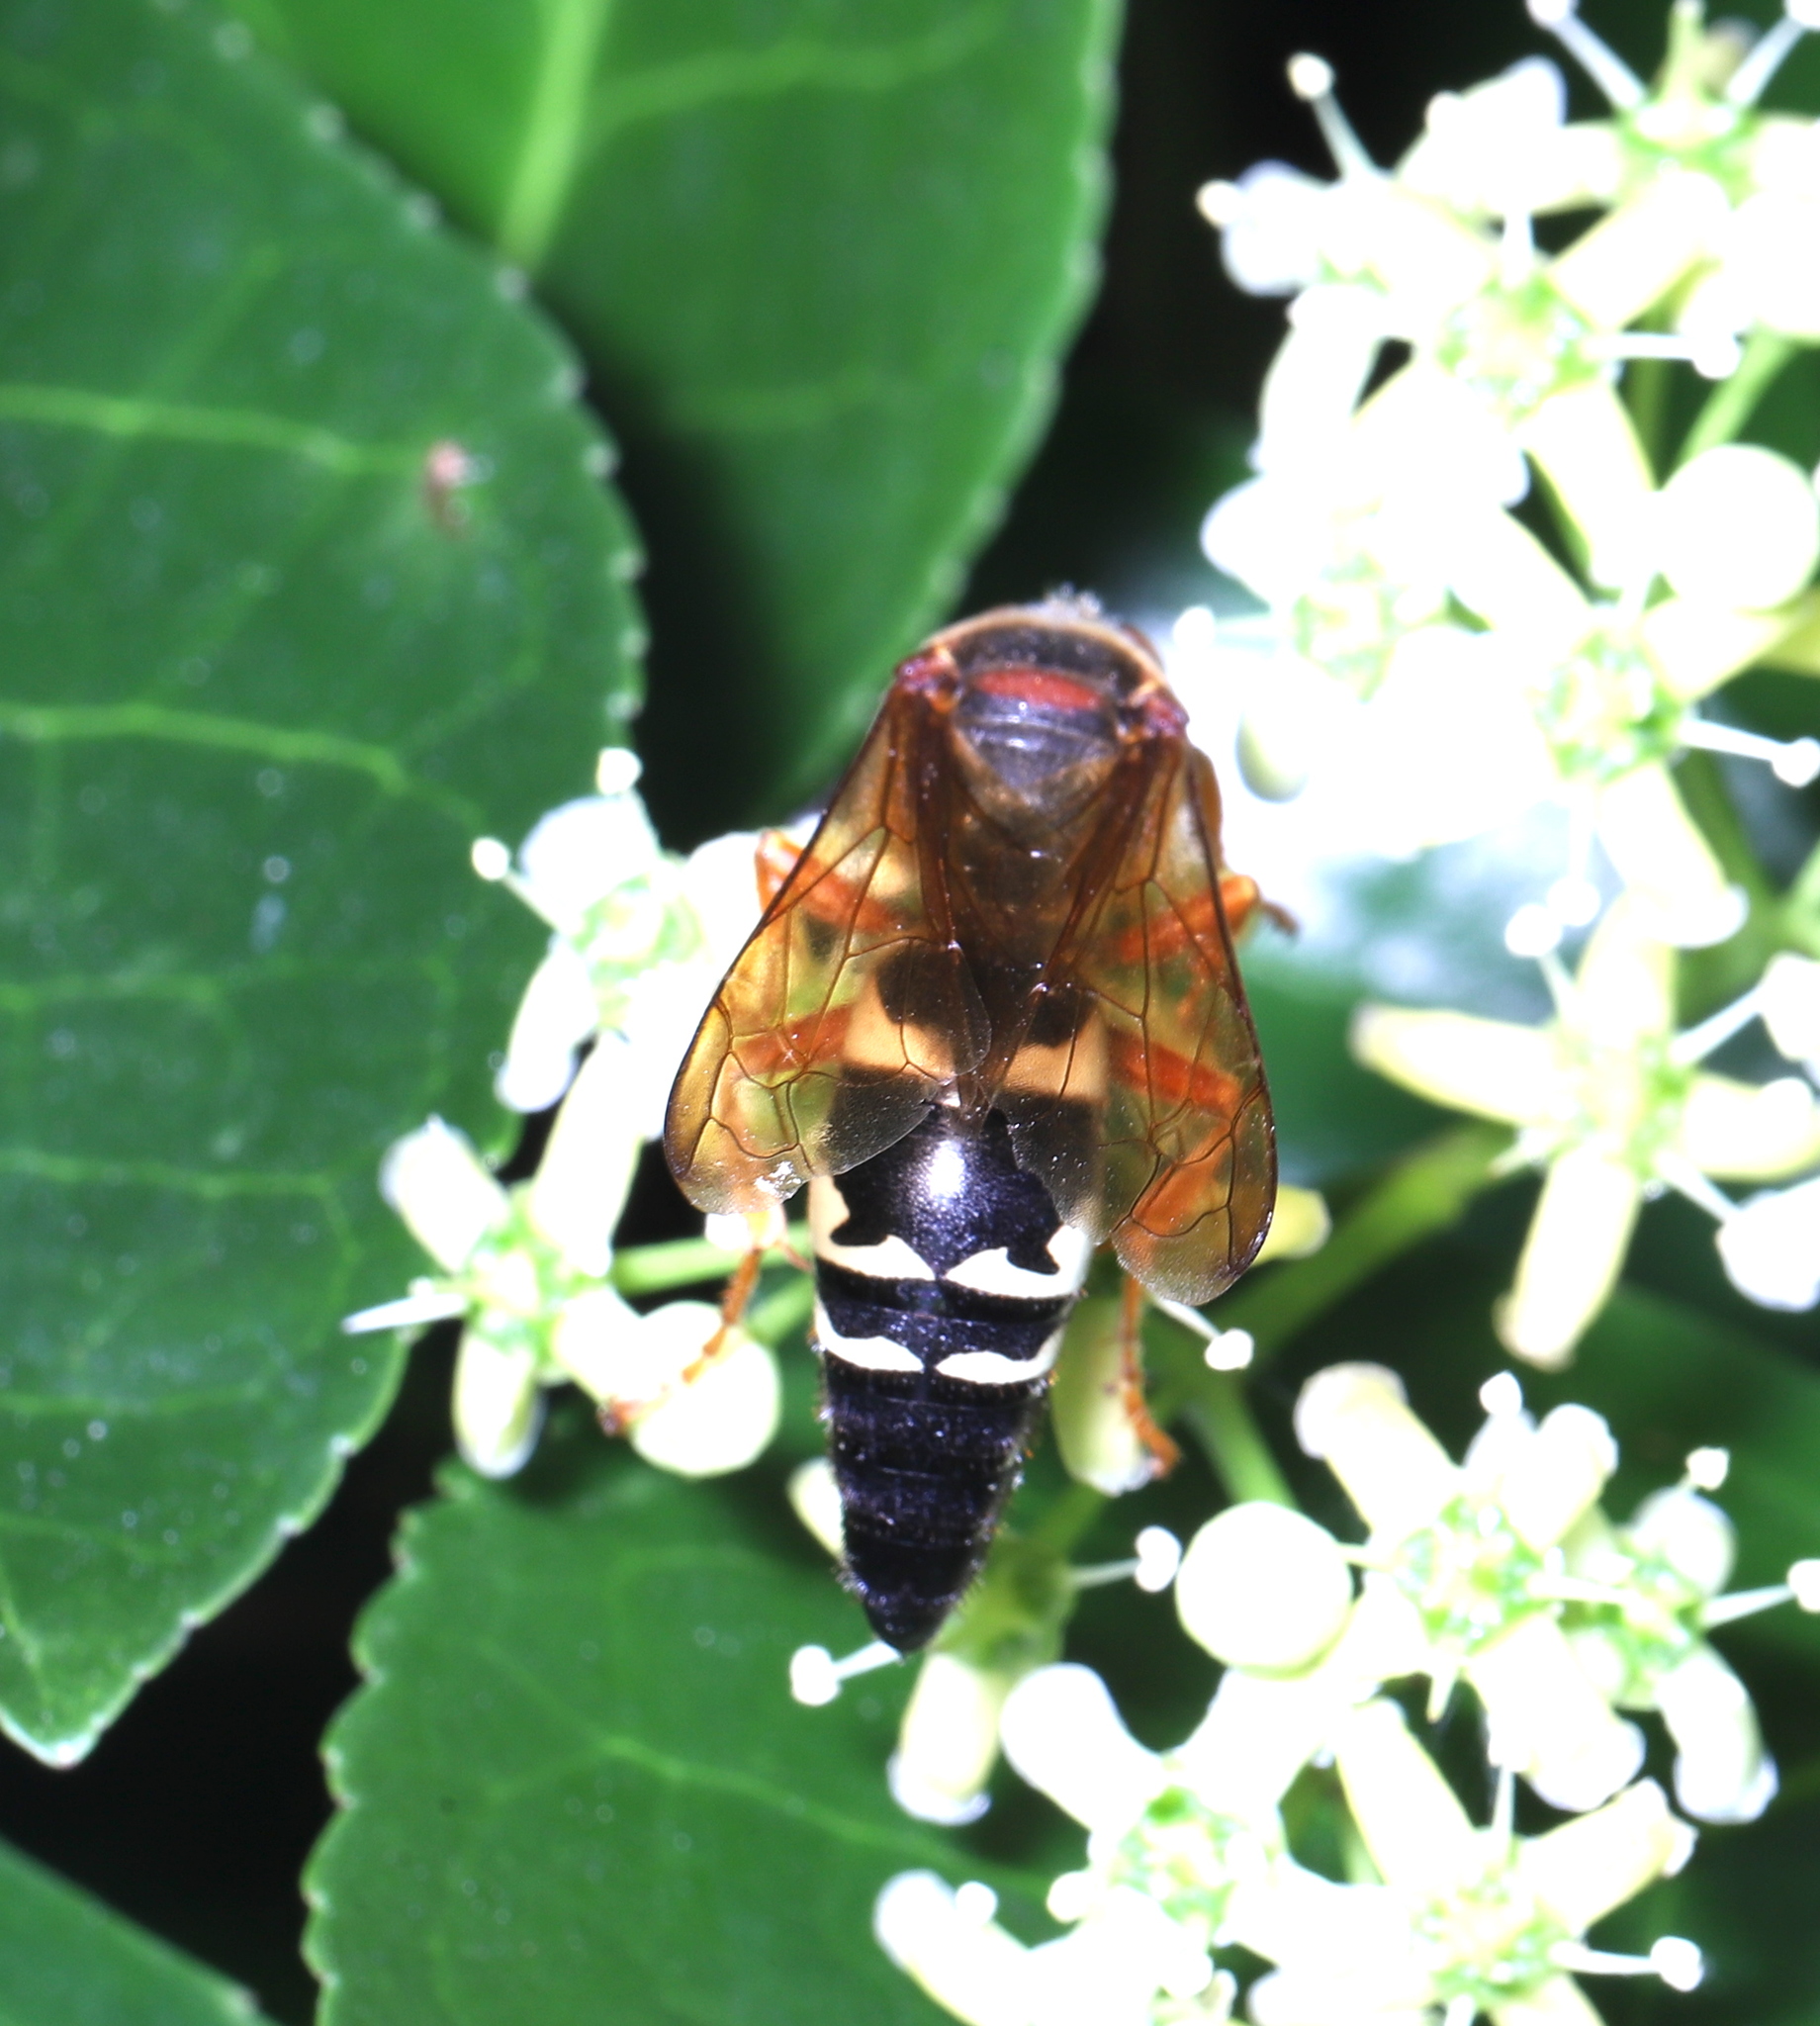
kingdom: Animalia
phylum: Arthropoda
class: Insecta
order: Hymenoptera
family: Crabronidae
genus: Sphecius
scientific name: Sphecius speciosus
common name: Cicada killer
